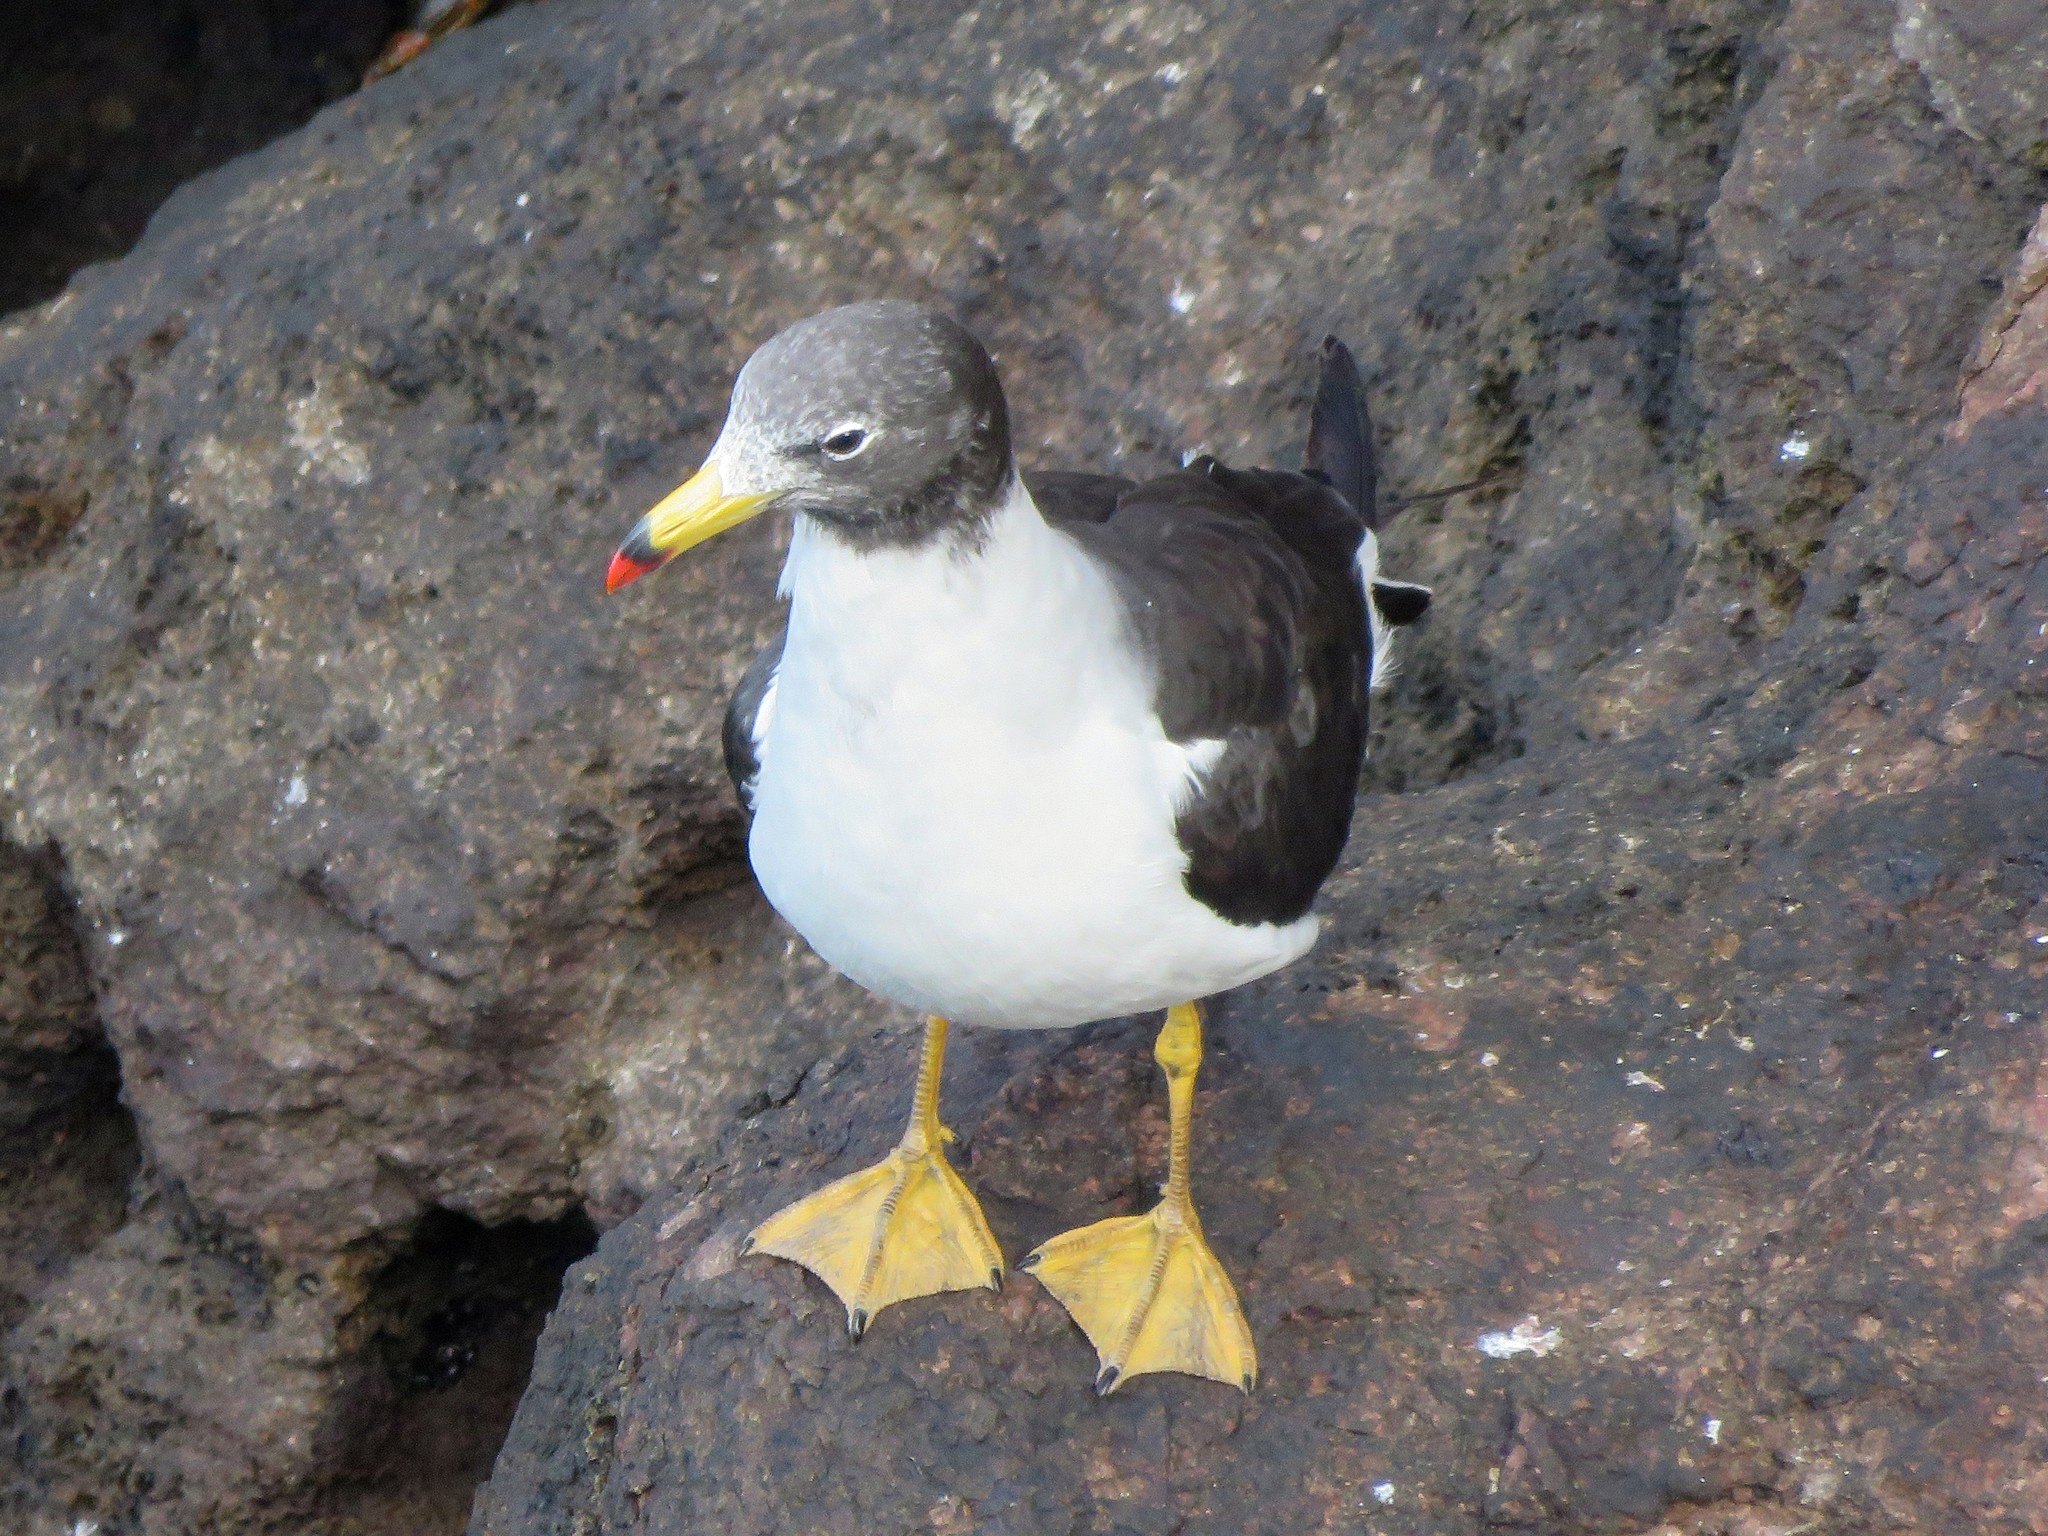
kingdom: Animalia
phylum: Chordata
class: Aves
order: Charadriiformes
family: Laridae
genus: Larus
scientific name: Larus belcheri
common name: Belcher's gull
